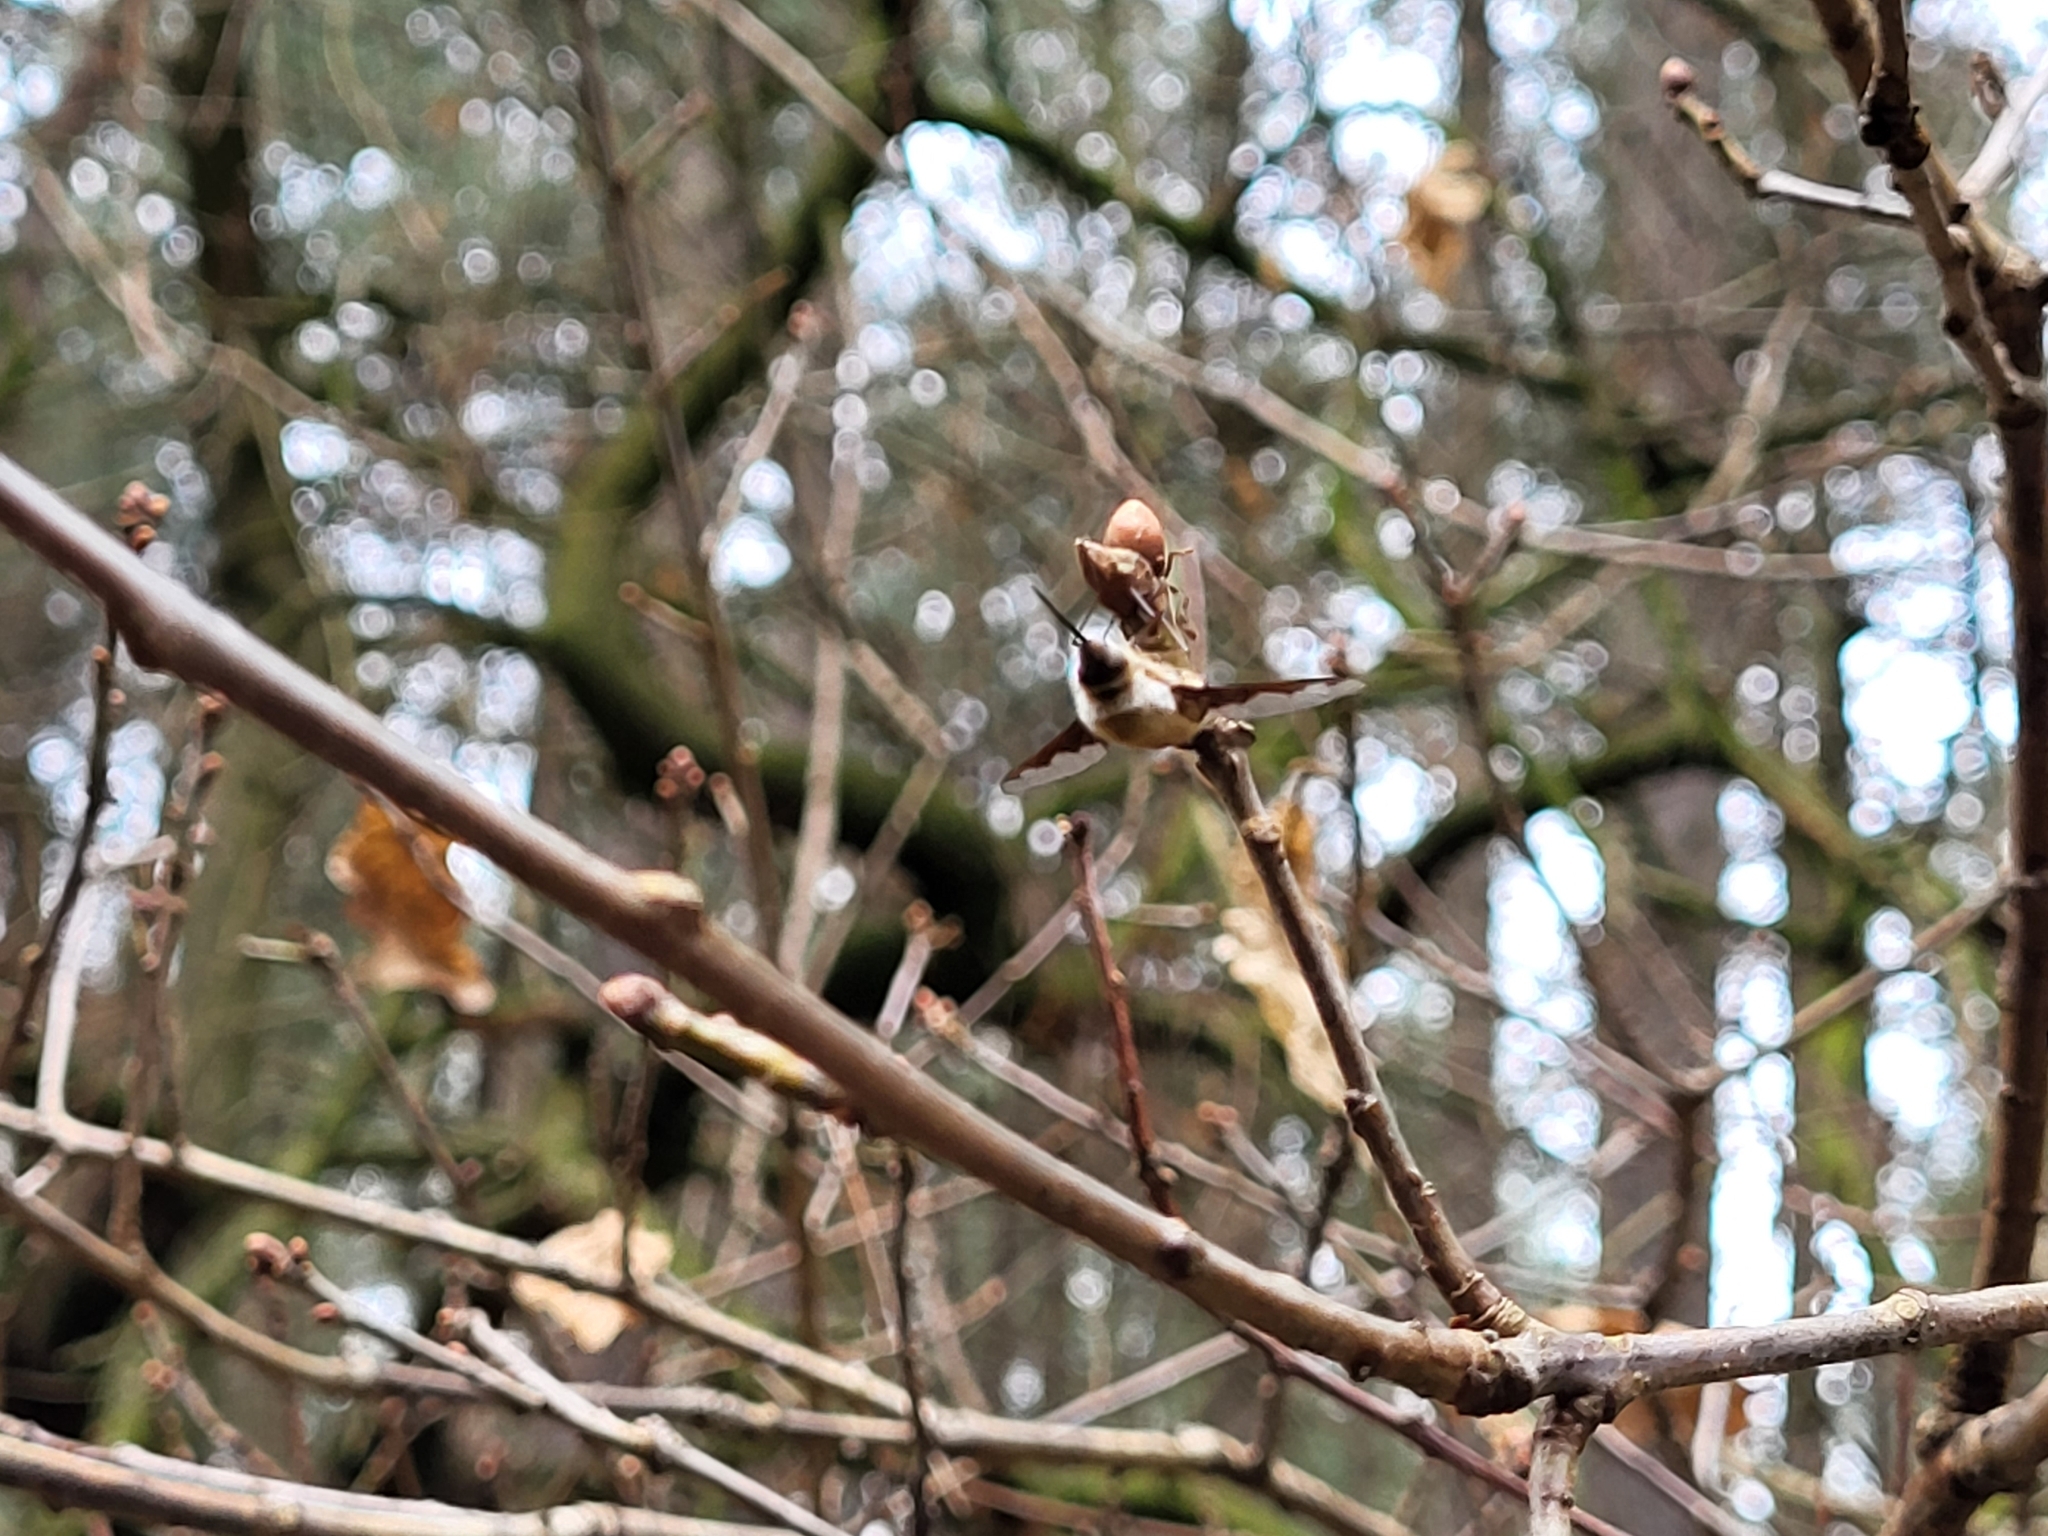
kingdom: Animalia
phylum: Arthropoda
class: Insecta
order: Diptera
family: Bombyliidae
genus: Bombylius
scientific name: Bombylius major
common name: Bee fly
